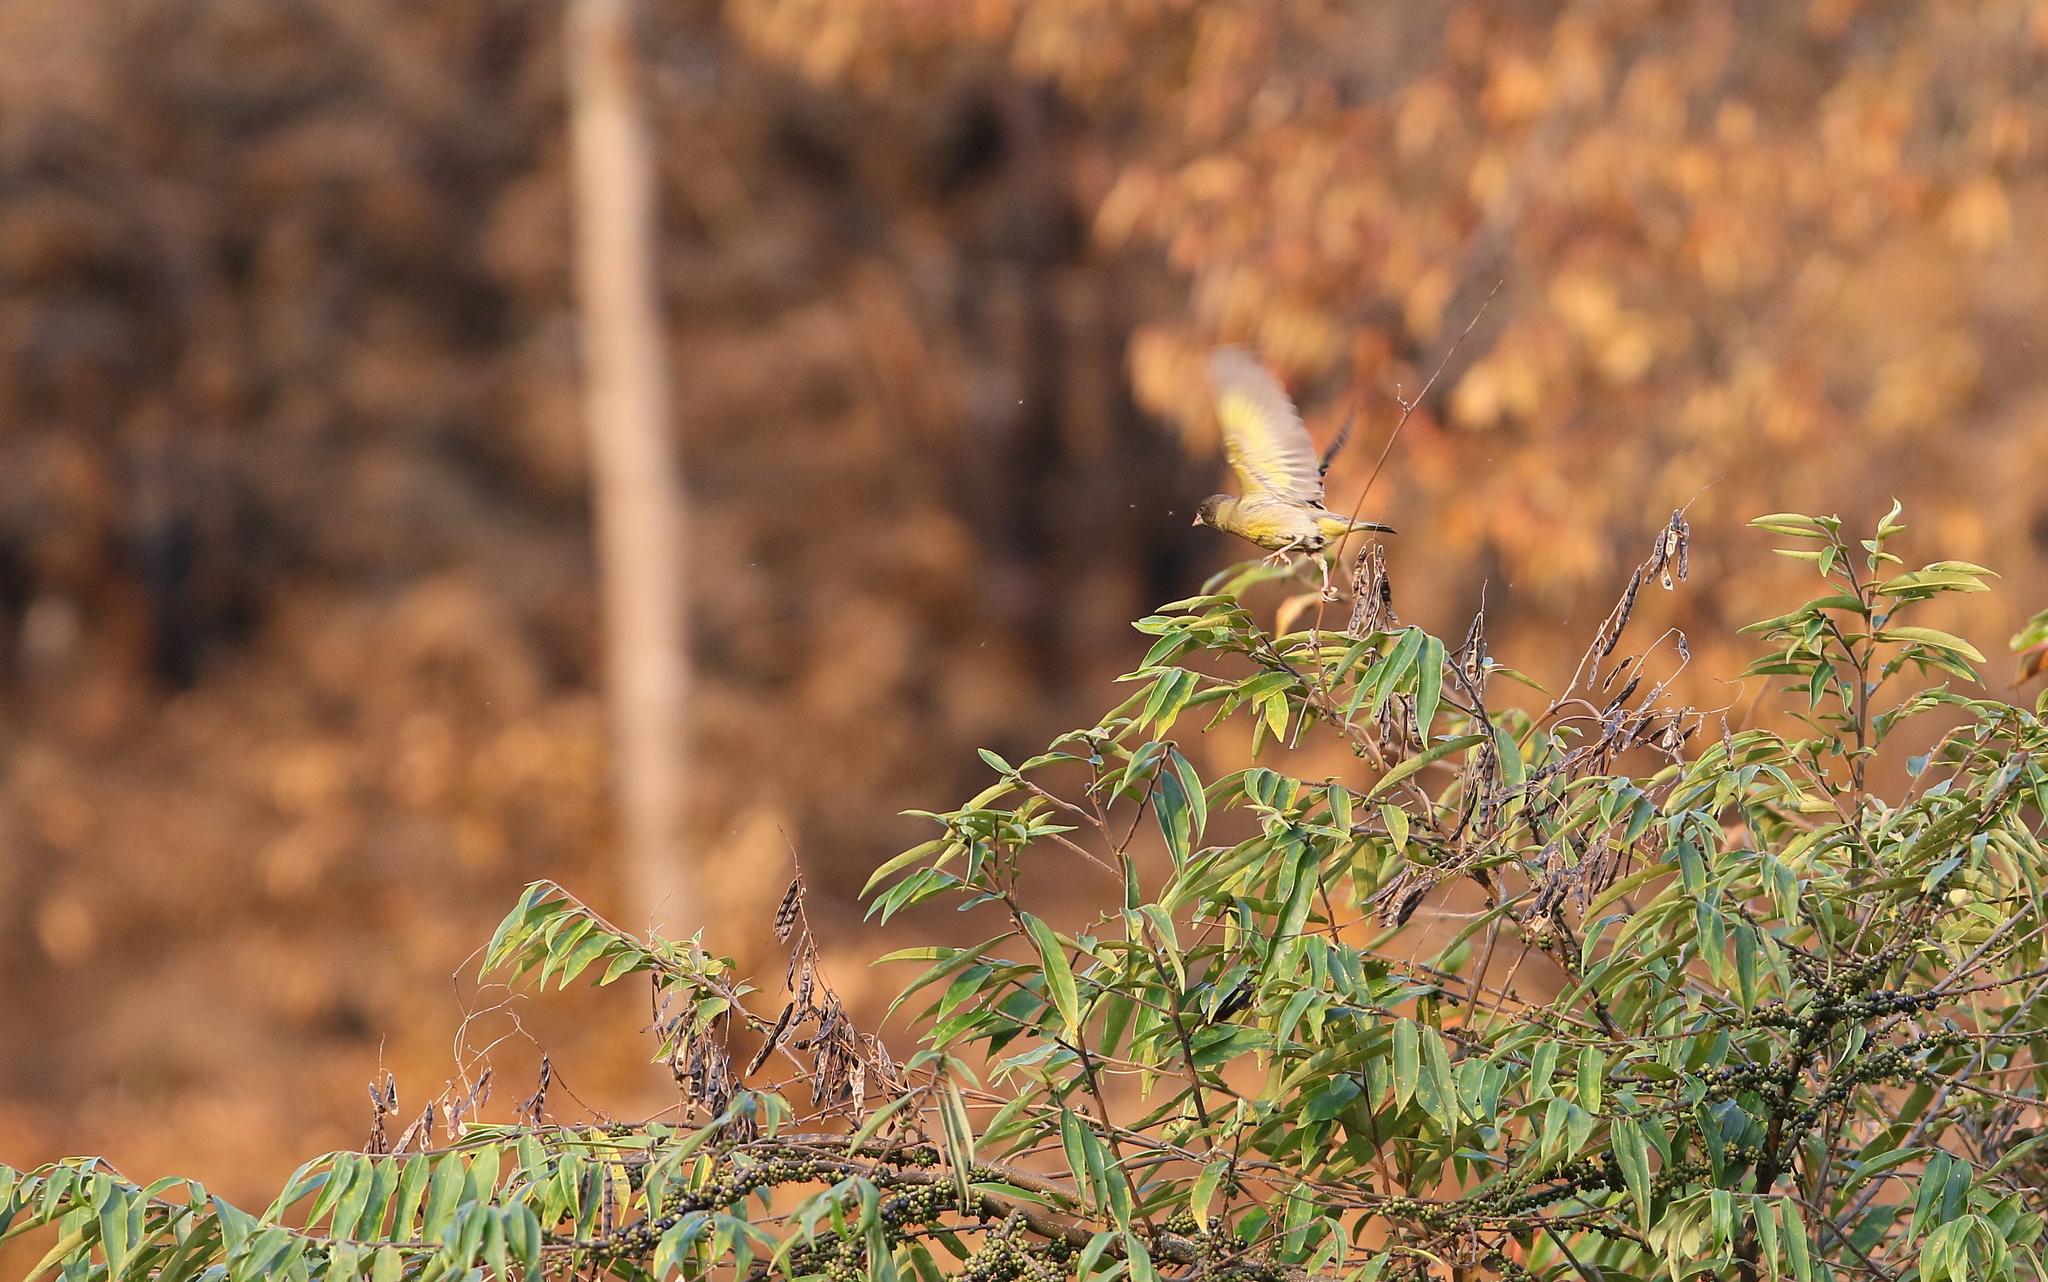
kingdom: Animalia
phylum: Chordata
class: Aves
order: Passeriformes
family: Fringillidae
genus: Chloris
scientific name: Chloris ambigua
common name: Black-headed greenfinch
